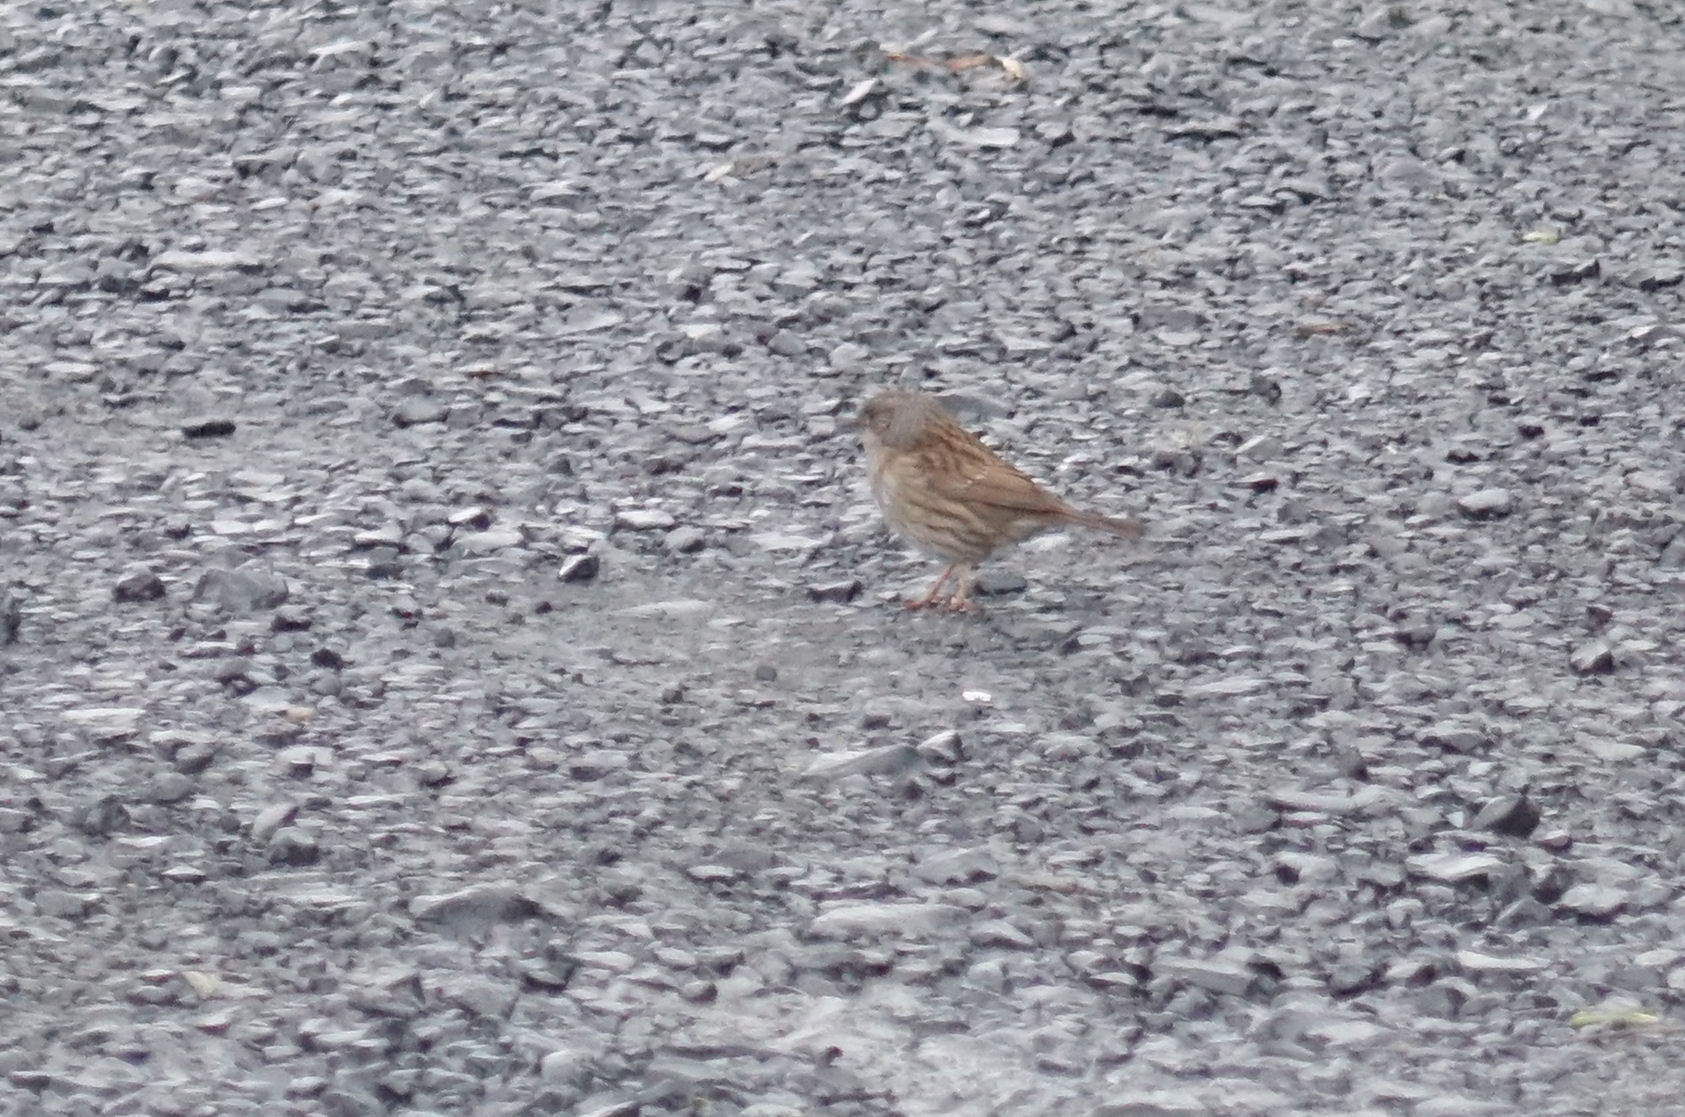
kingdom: Animalia
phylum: Chordata
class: Aves
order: Passeriformes
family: Prunellidae
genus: Prunella
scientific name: Prunella modularis
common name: Dunnock
